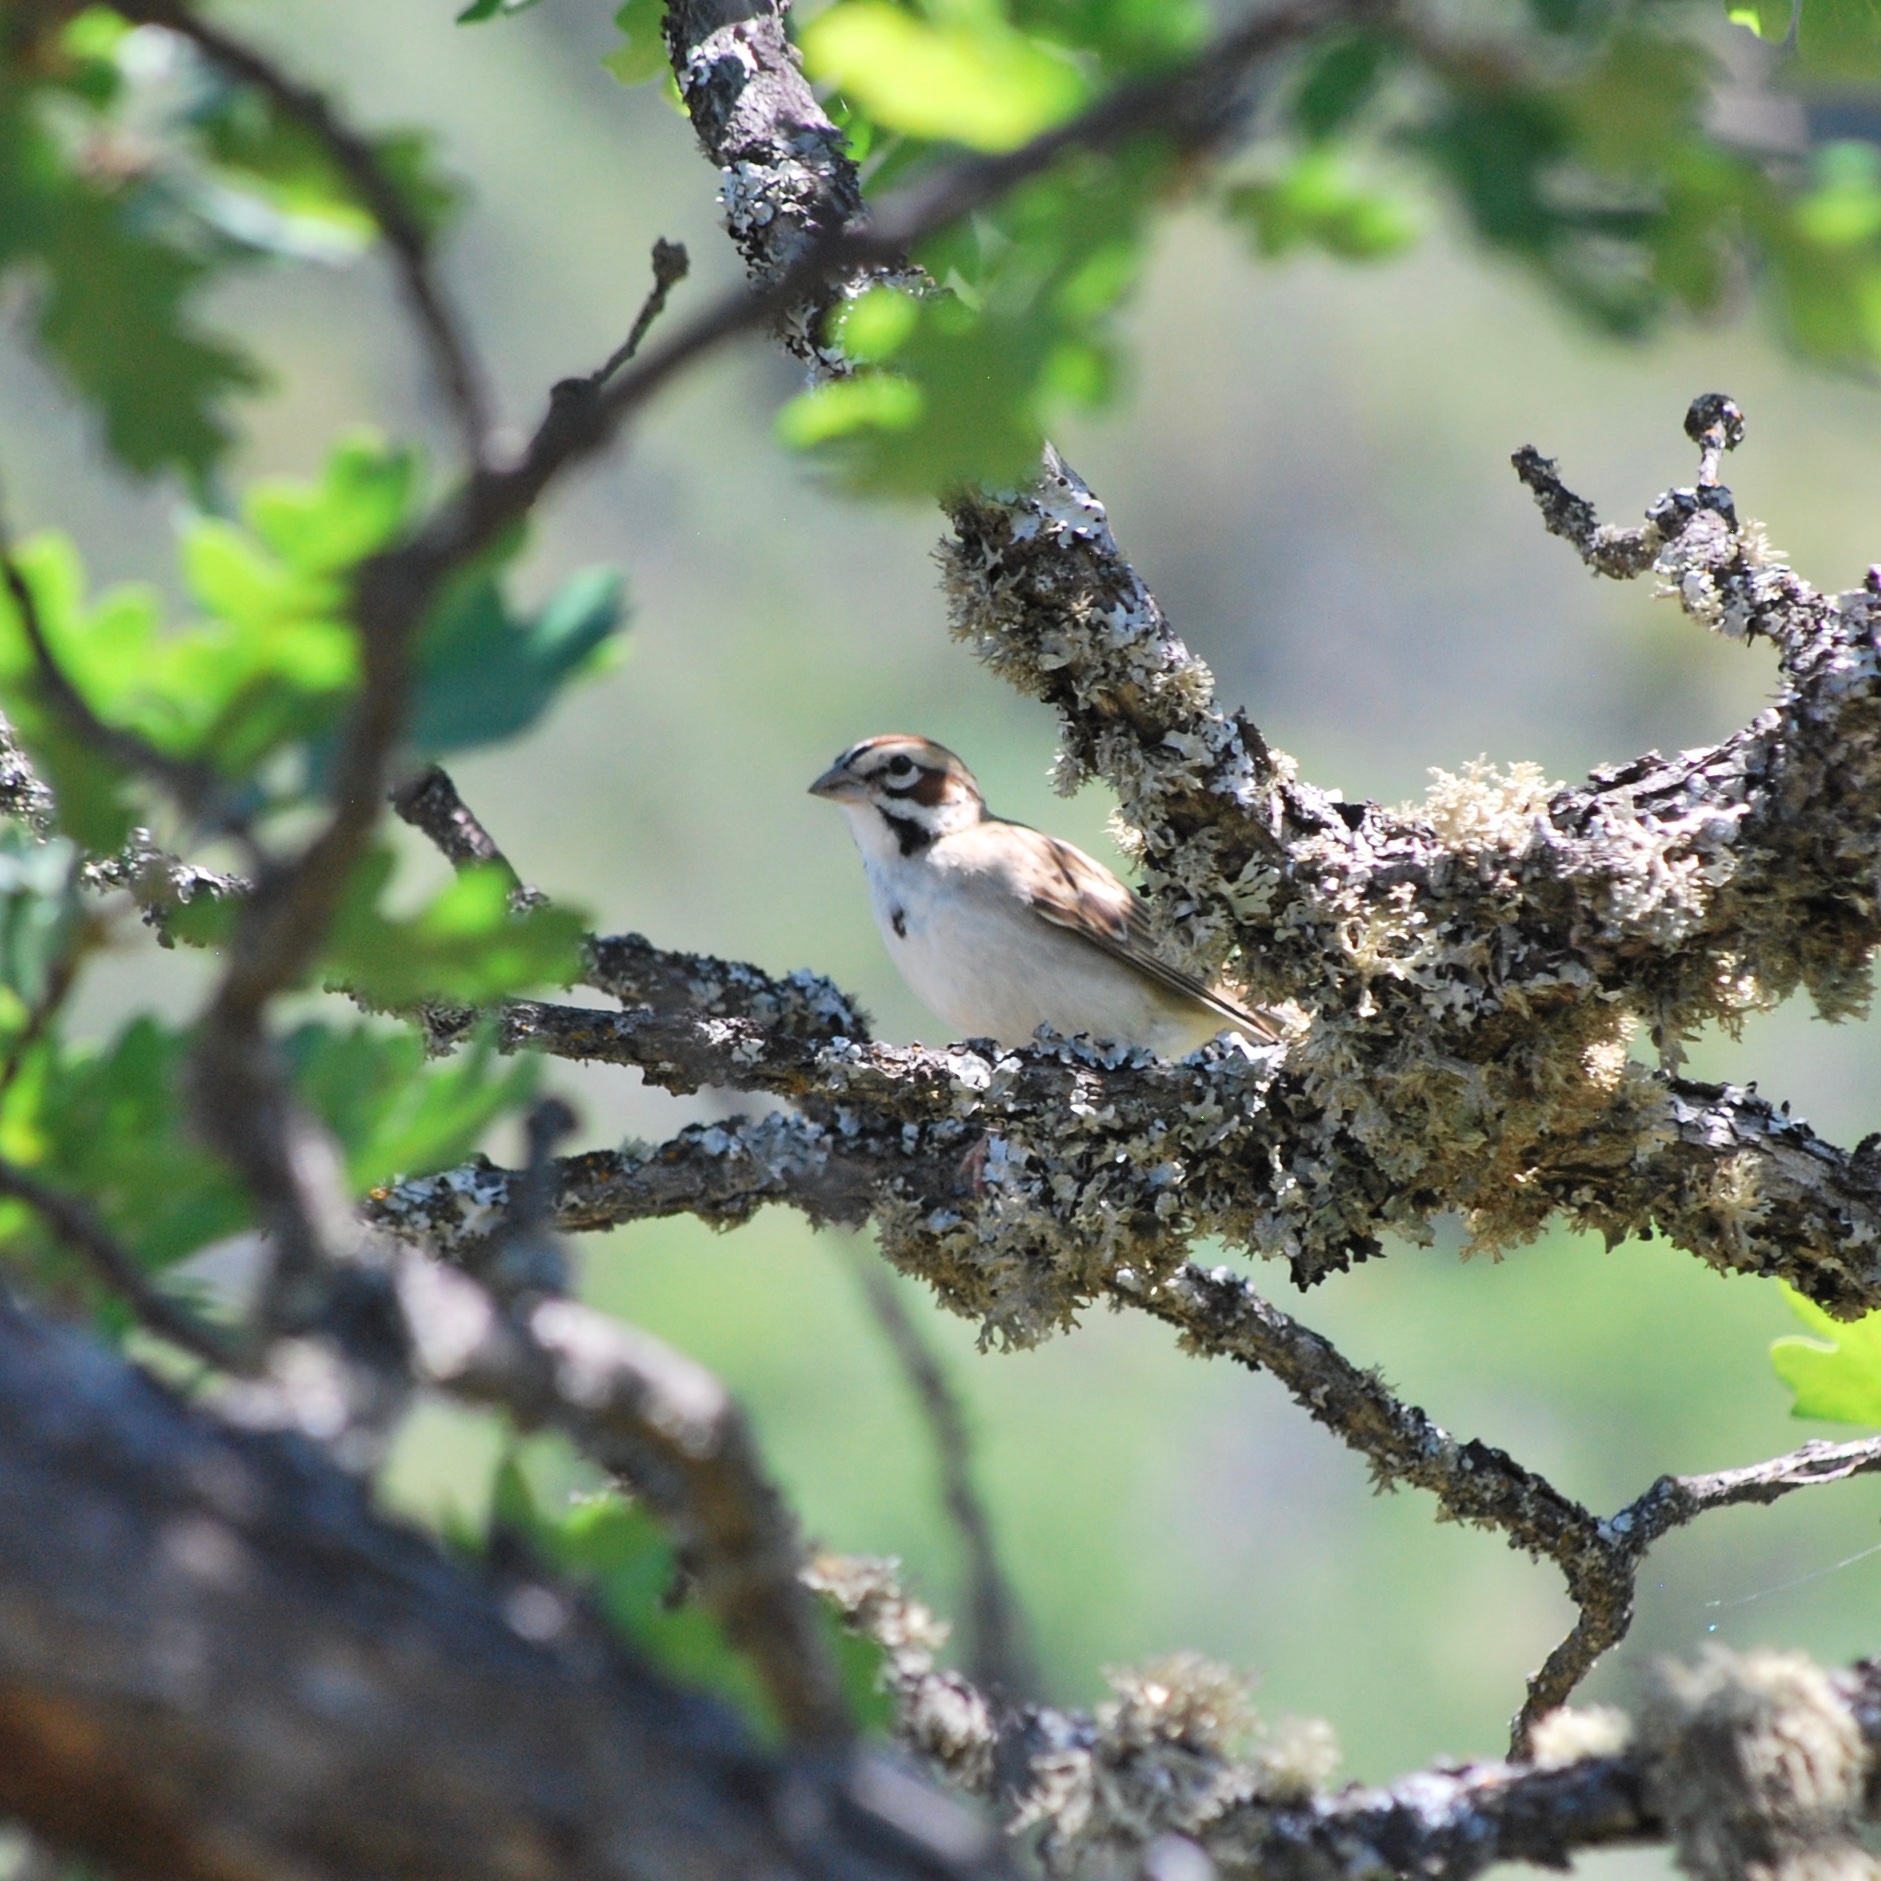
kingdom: Animalia
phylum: Chordata
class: Aves
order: Passeriformes
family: Passerellidae
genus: Chondestes
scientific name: Chondestes grammacus
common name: Lark sparrow
